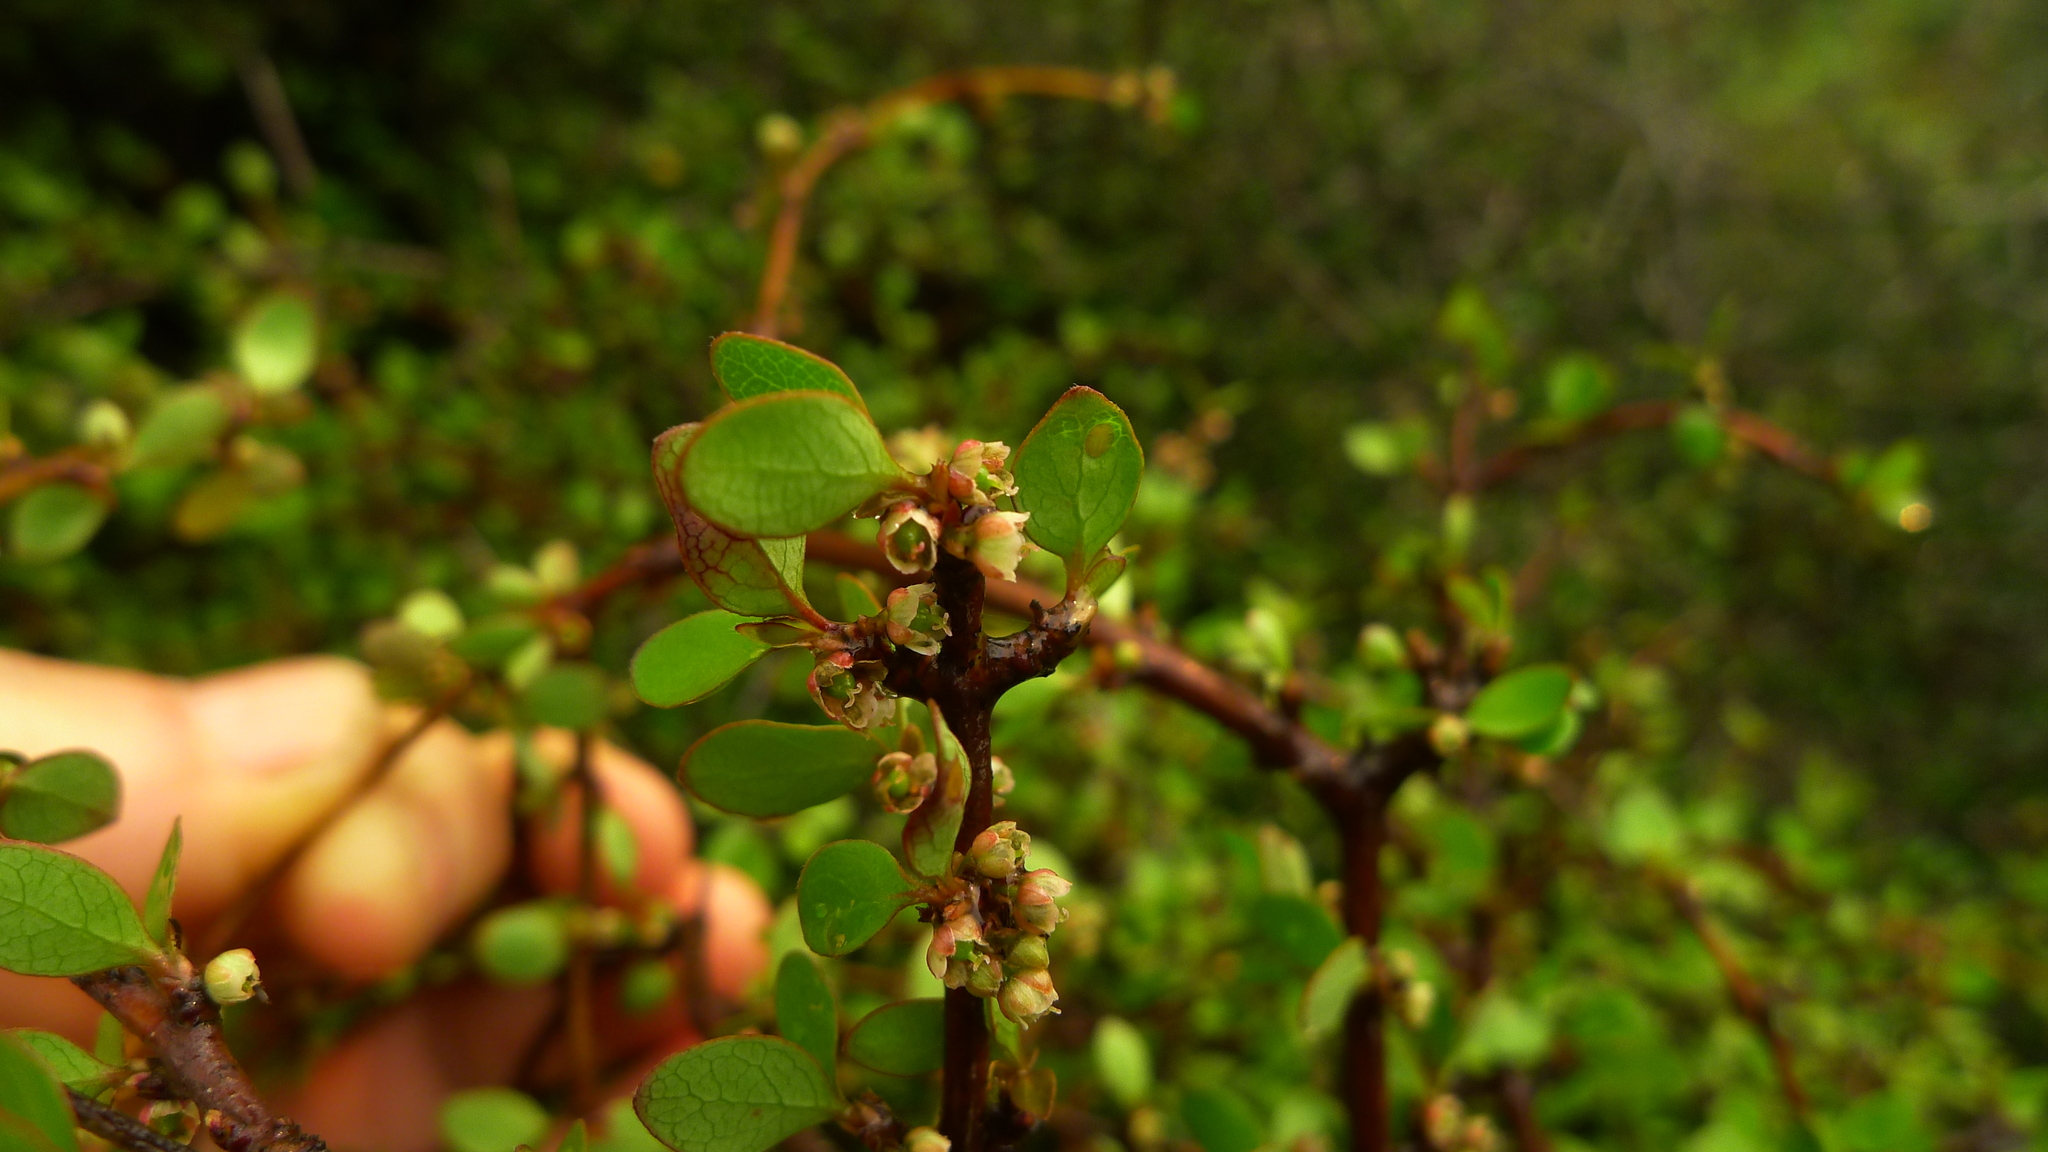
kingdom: Plantae
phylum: Tracheophyta
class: Magnoliopsida
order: Oxalidales
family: Elaeocarpaceae
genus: Aristotelia
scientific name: Aristotelia fruticosa
